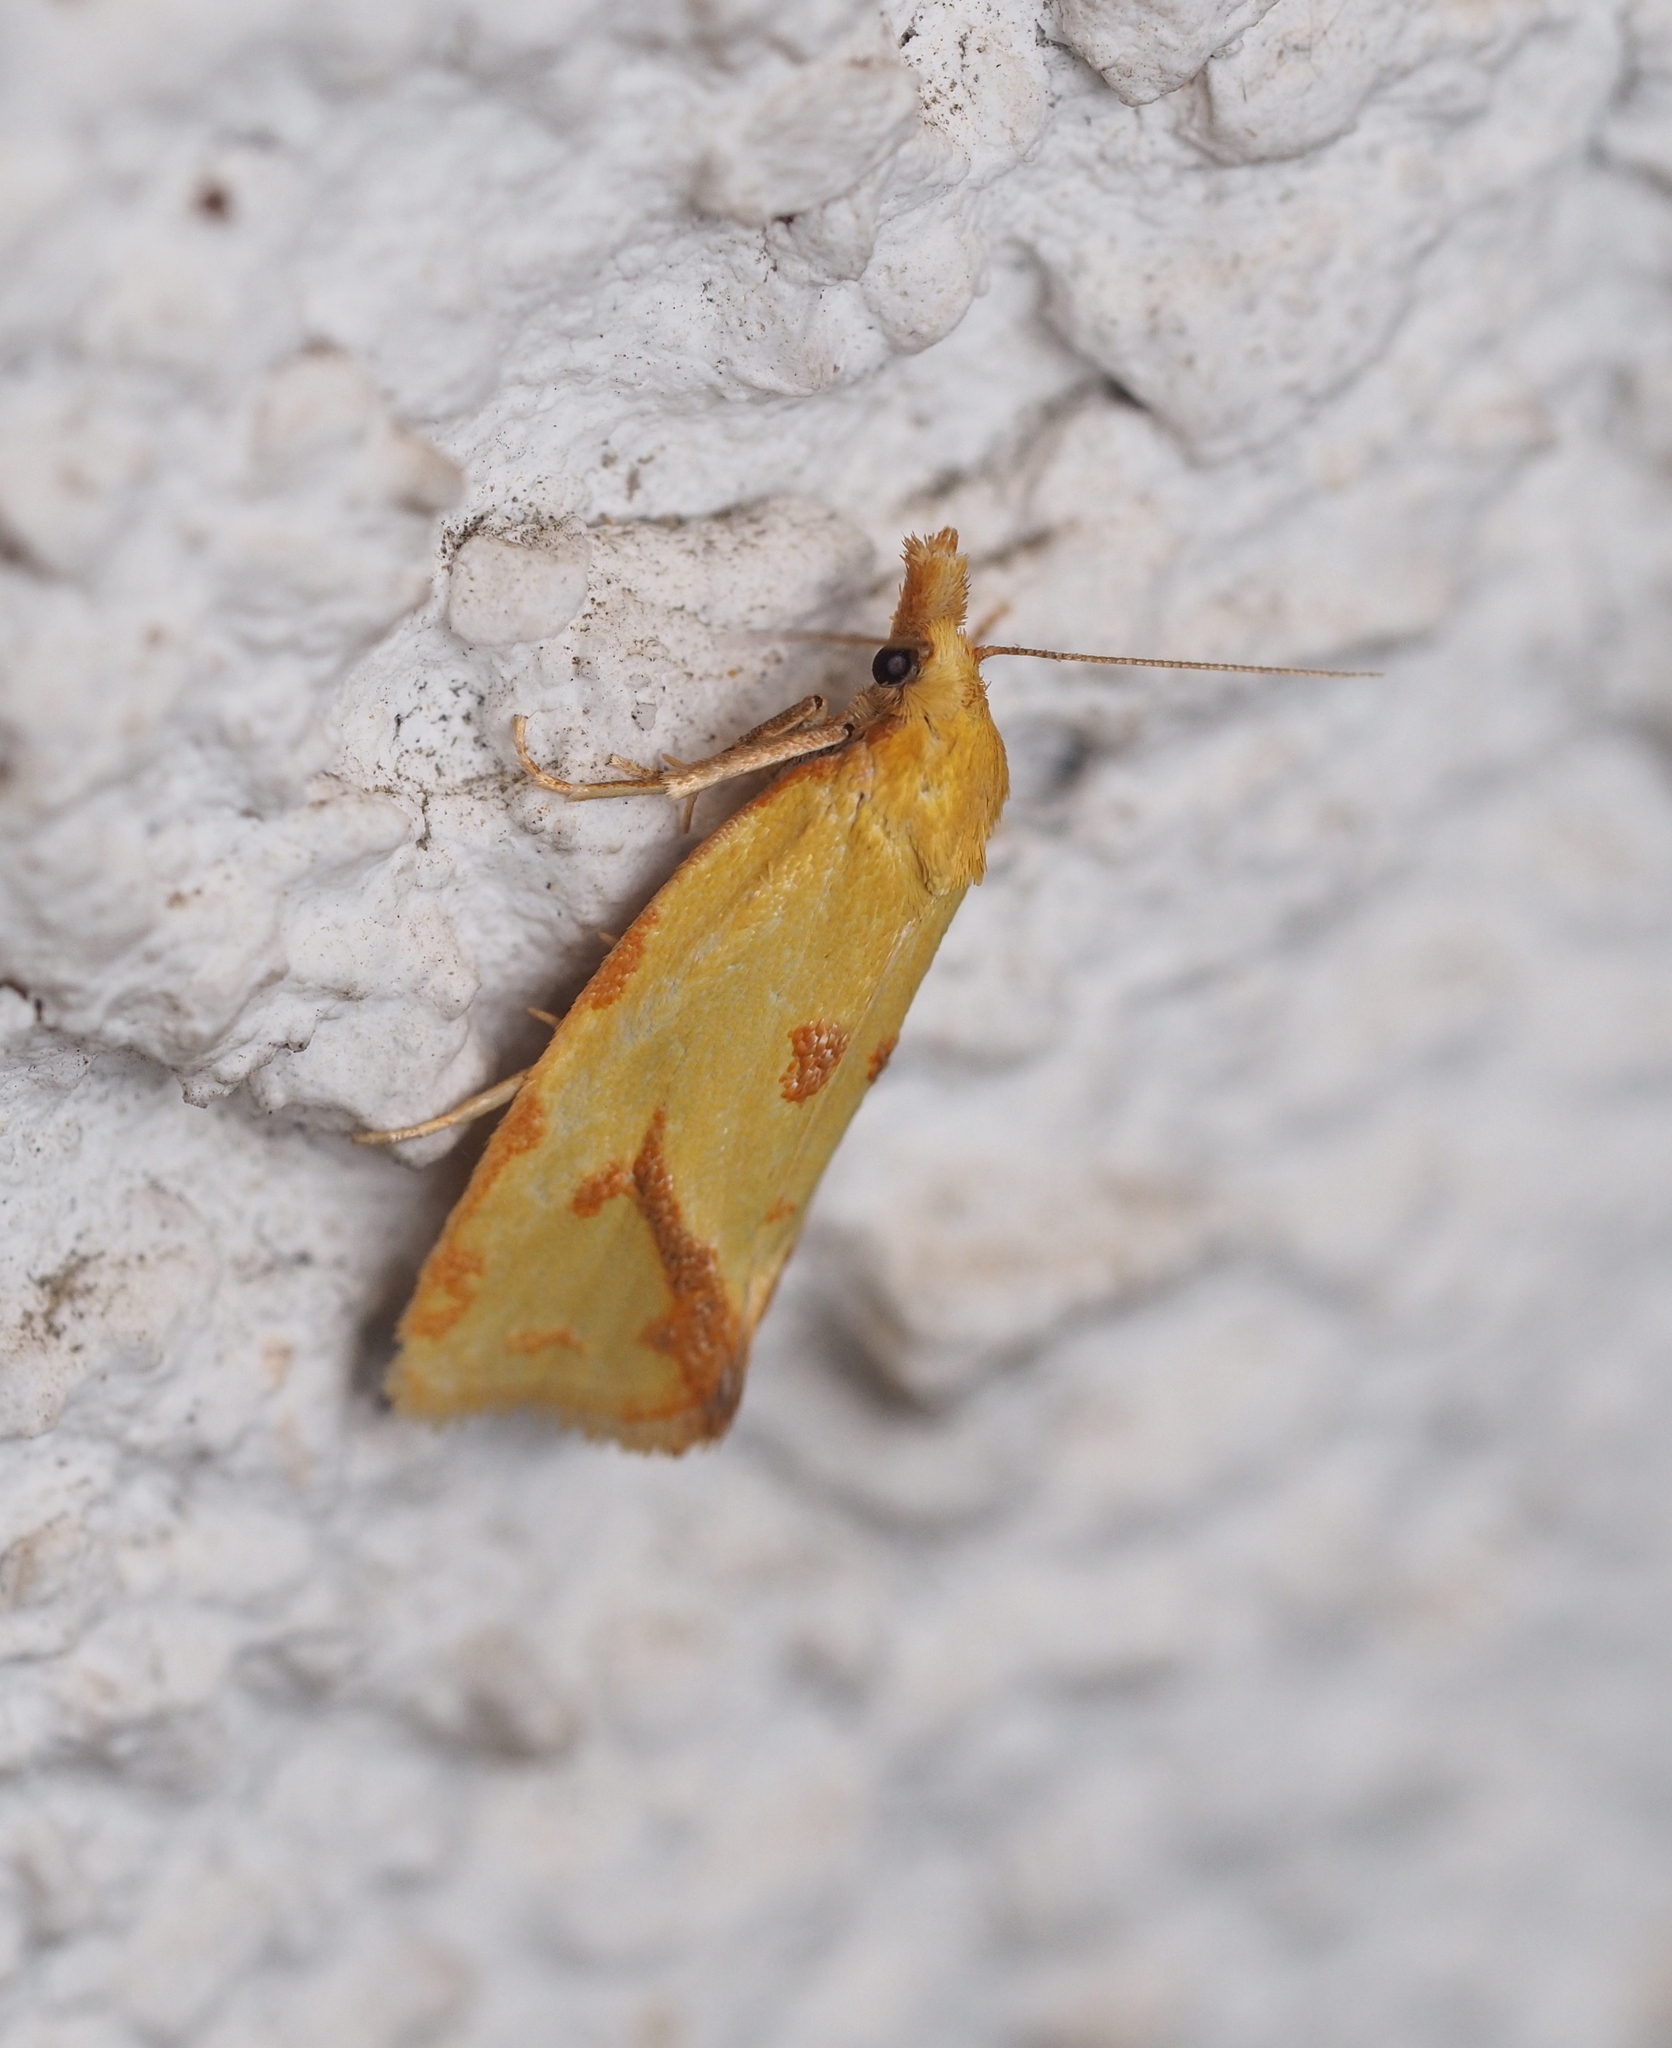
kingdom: Animalia
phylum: Arthropoda
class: Insecta
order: Lepidoptera
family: Tortricidae
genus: Agapeta
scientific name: Agapeta hamana
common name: Common yellow conch
